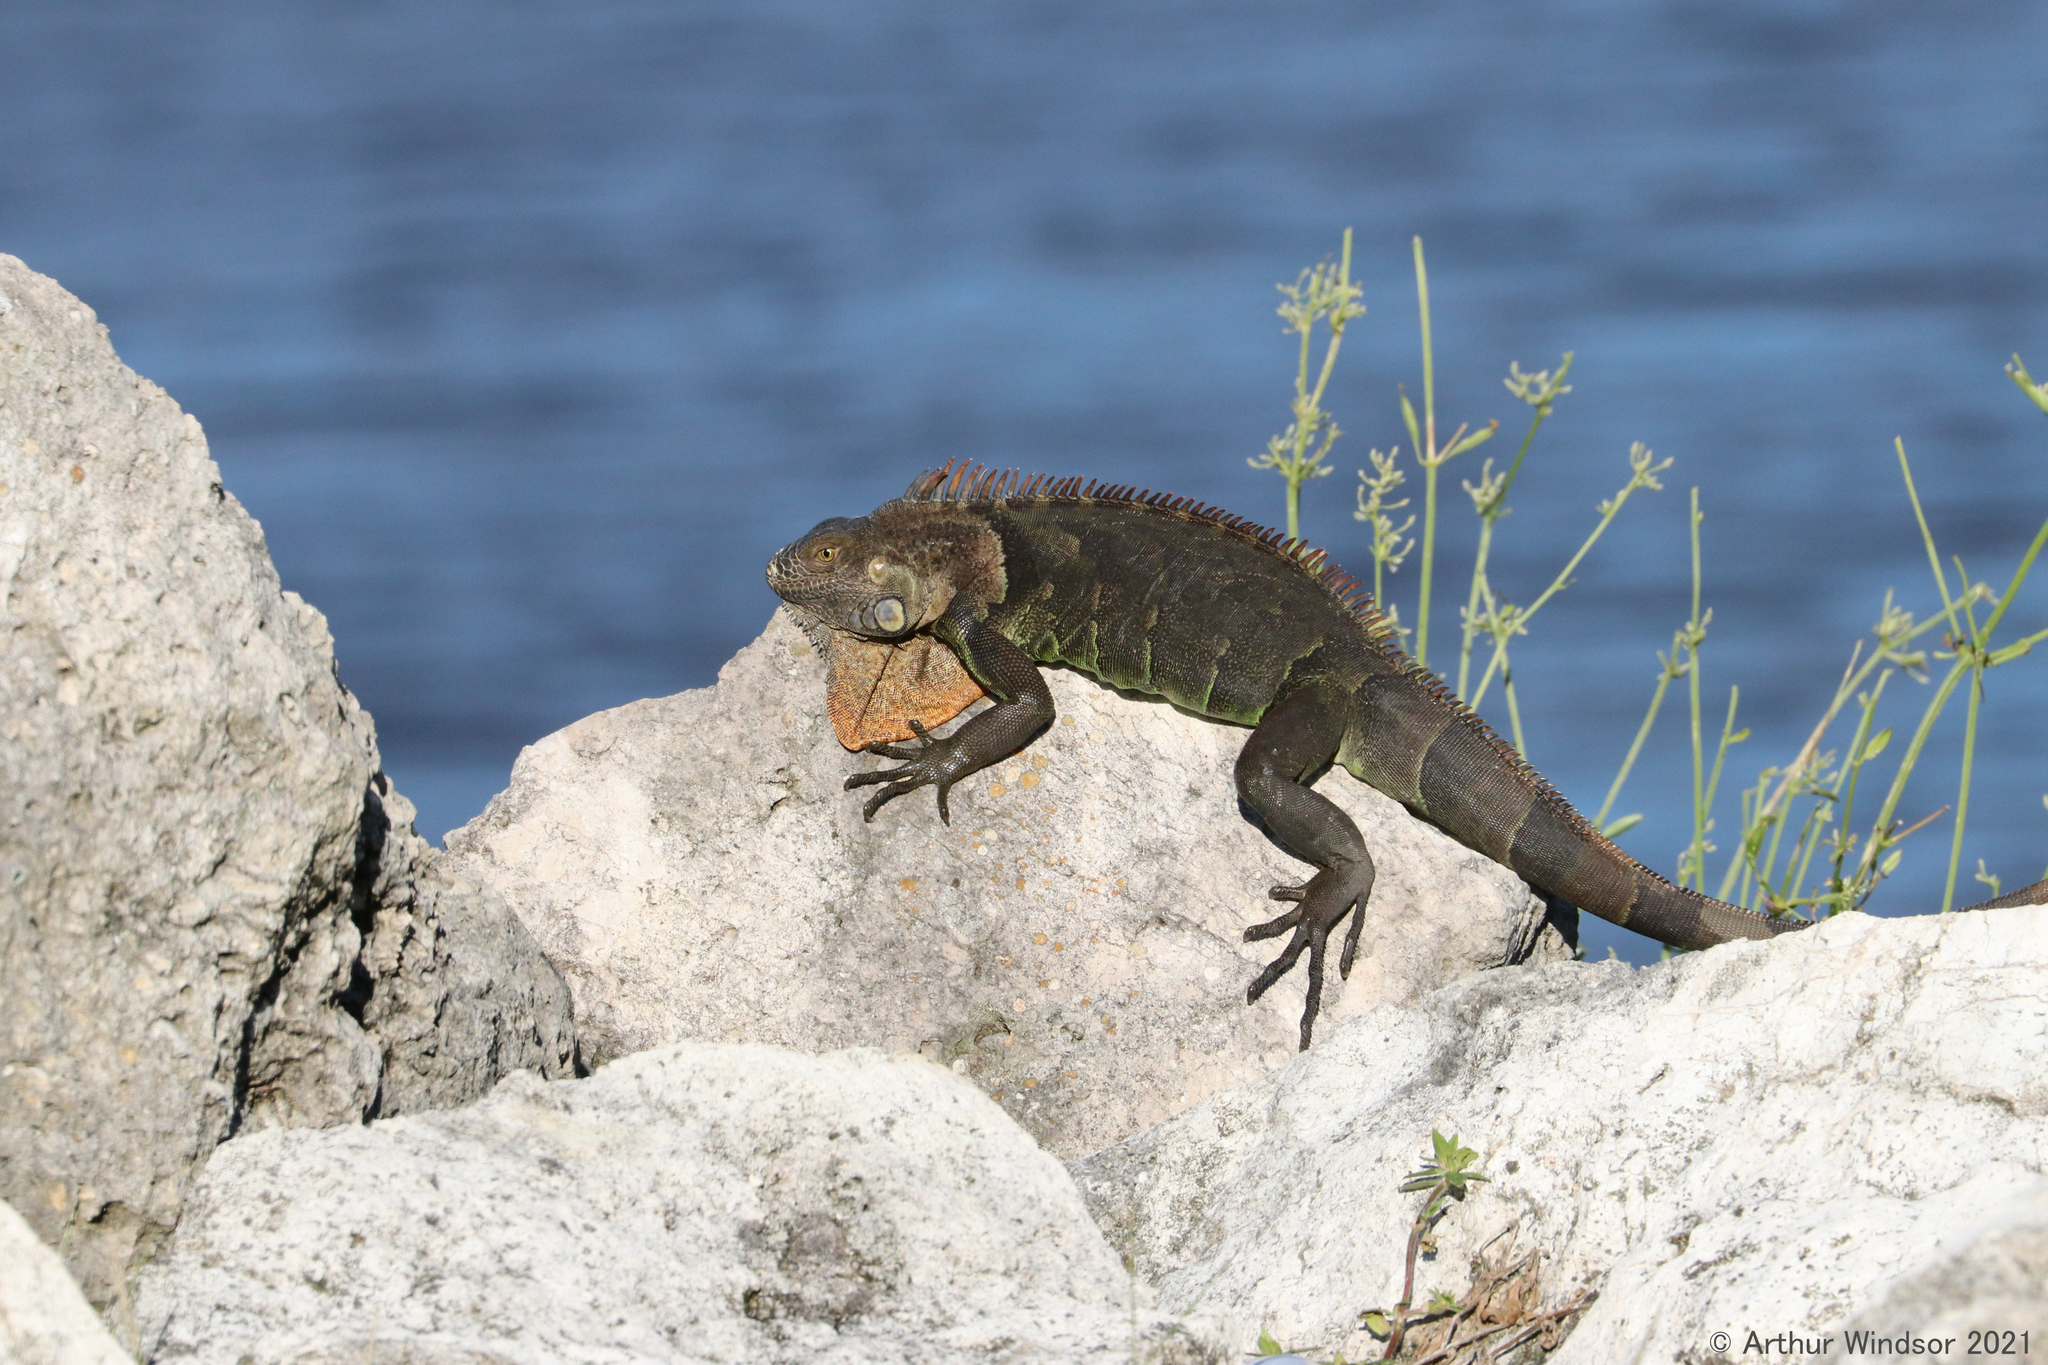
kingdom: Animalia
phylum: Chordata
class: Squamata
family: Iguanidae
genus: Iguana
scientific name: Iguana iguana
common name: Green iguana
